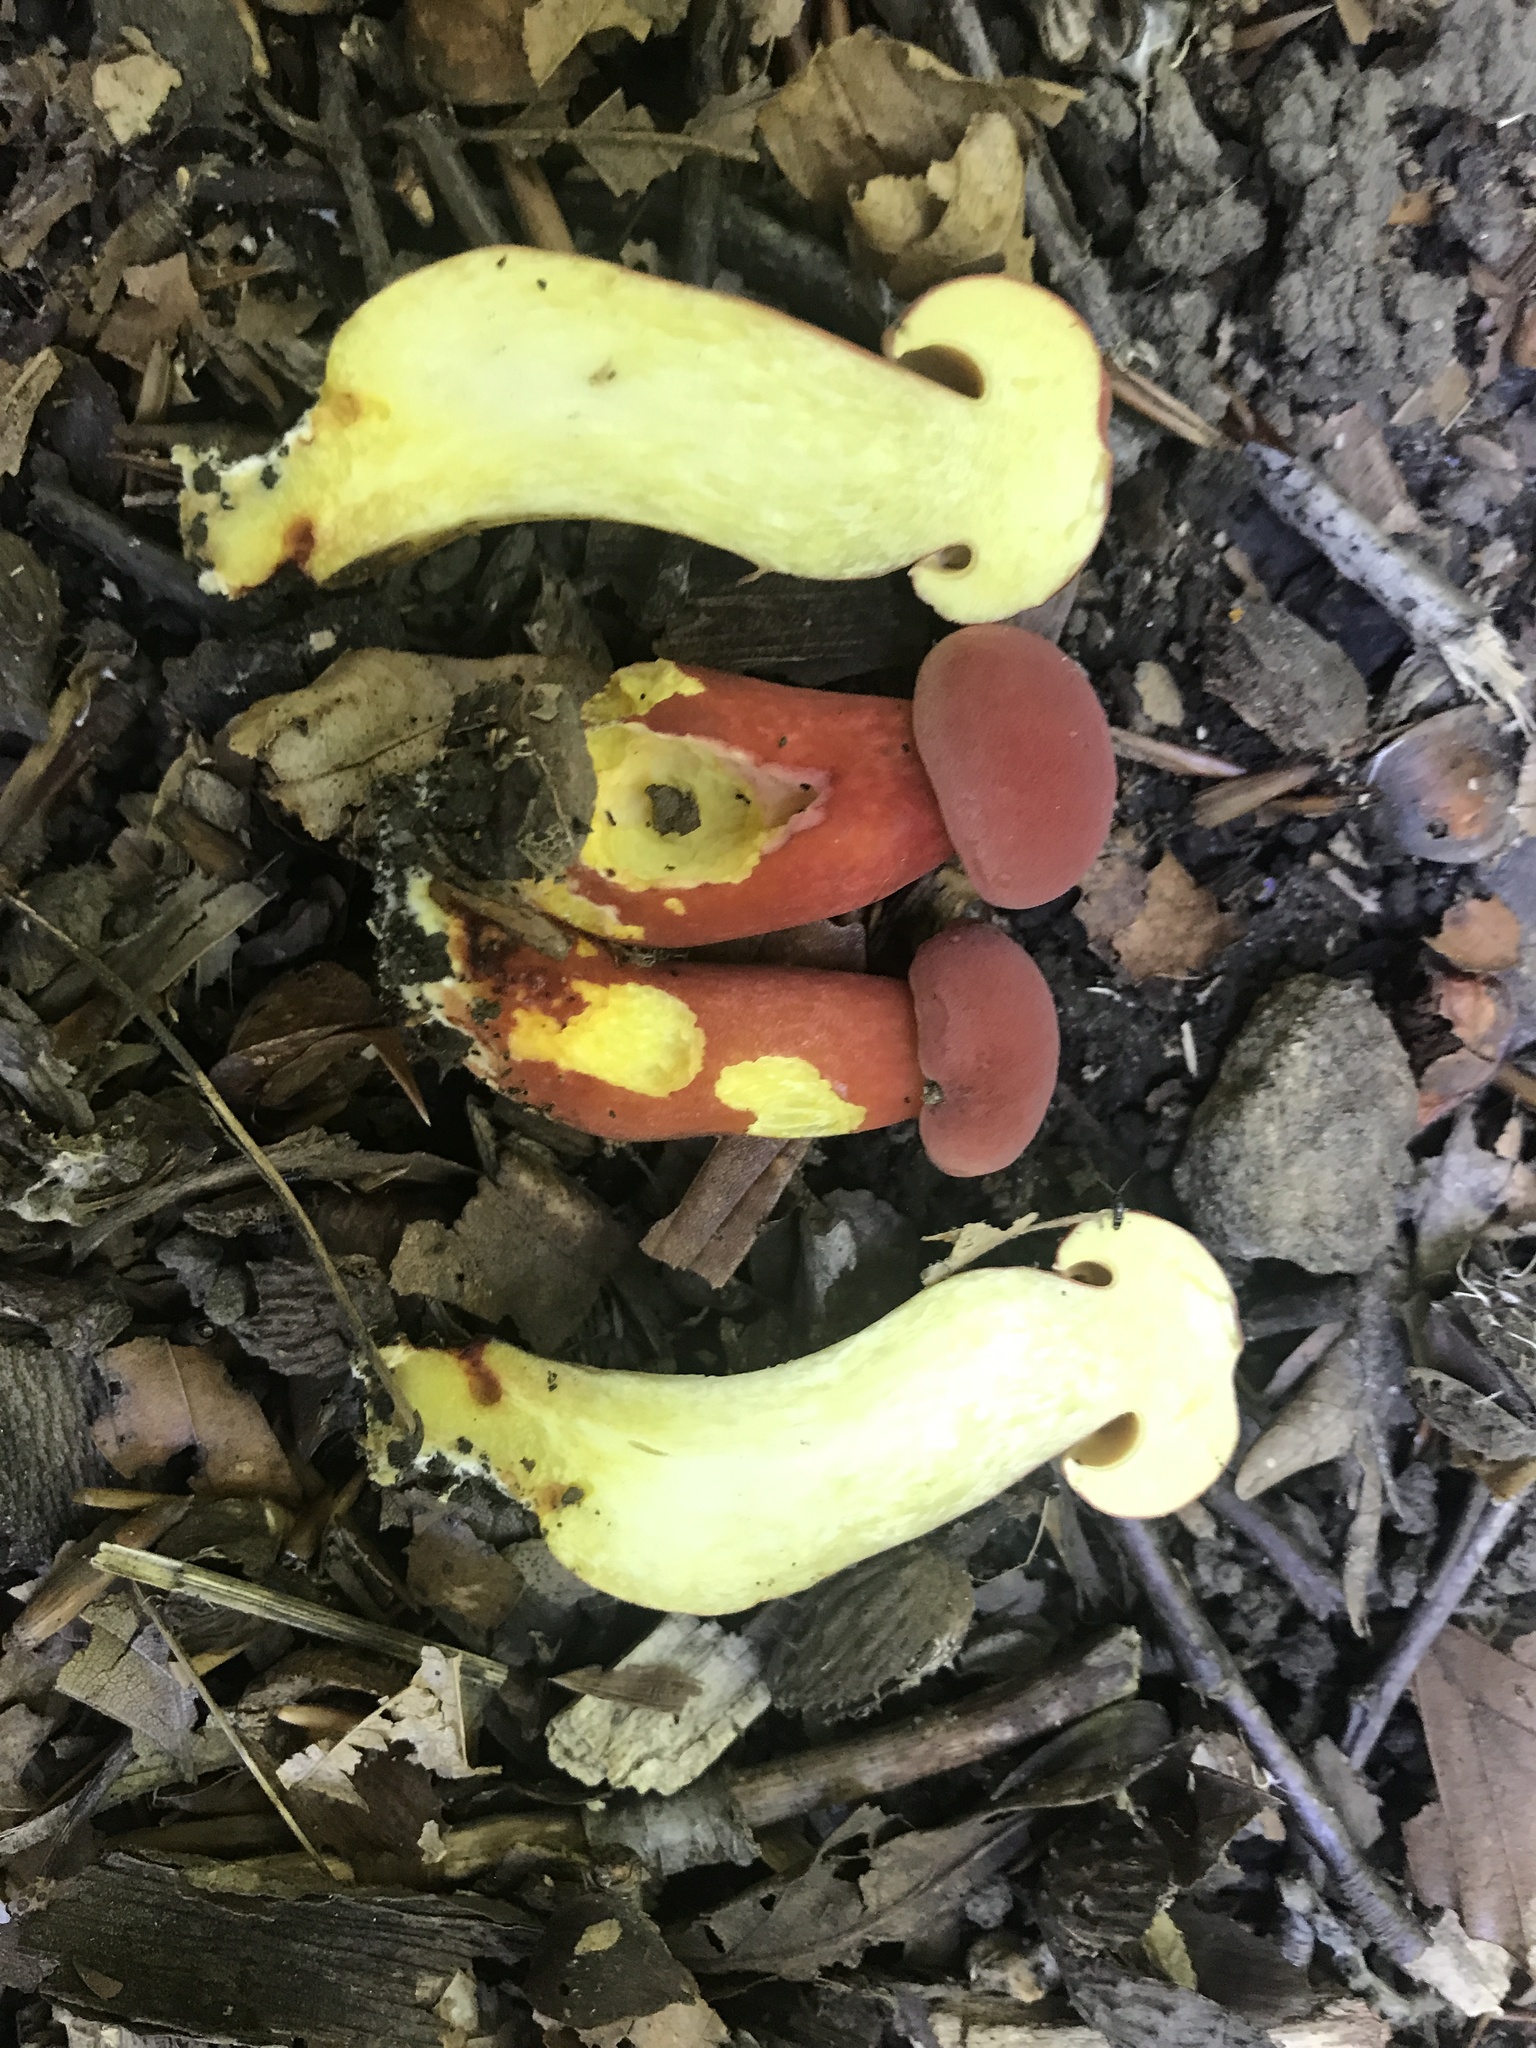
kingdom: Fungi
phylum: Basidiomycota
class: Agaricomycetes
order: Boletales
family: Boletaceae
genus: Boletus
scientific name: Boletus carminiporus
